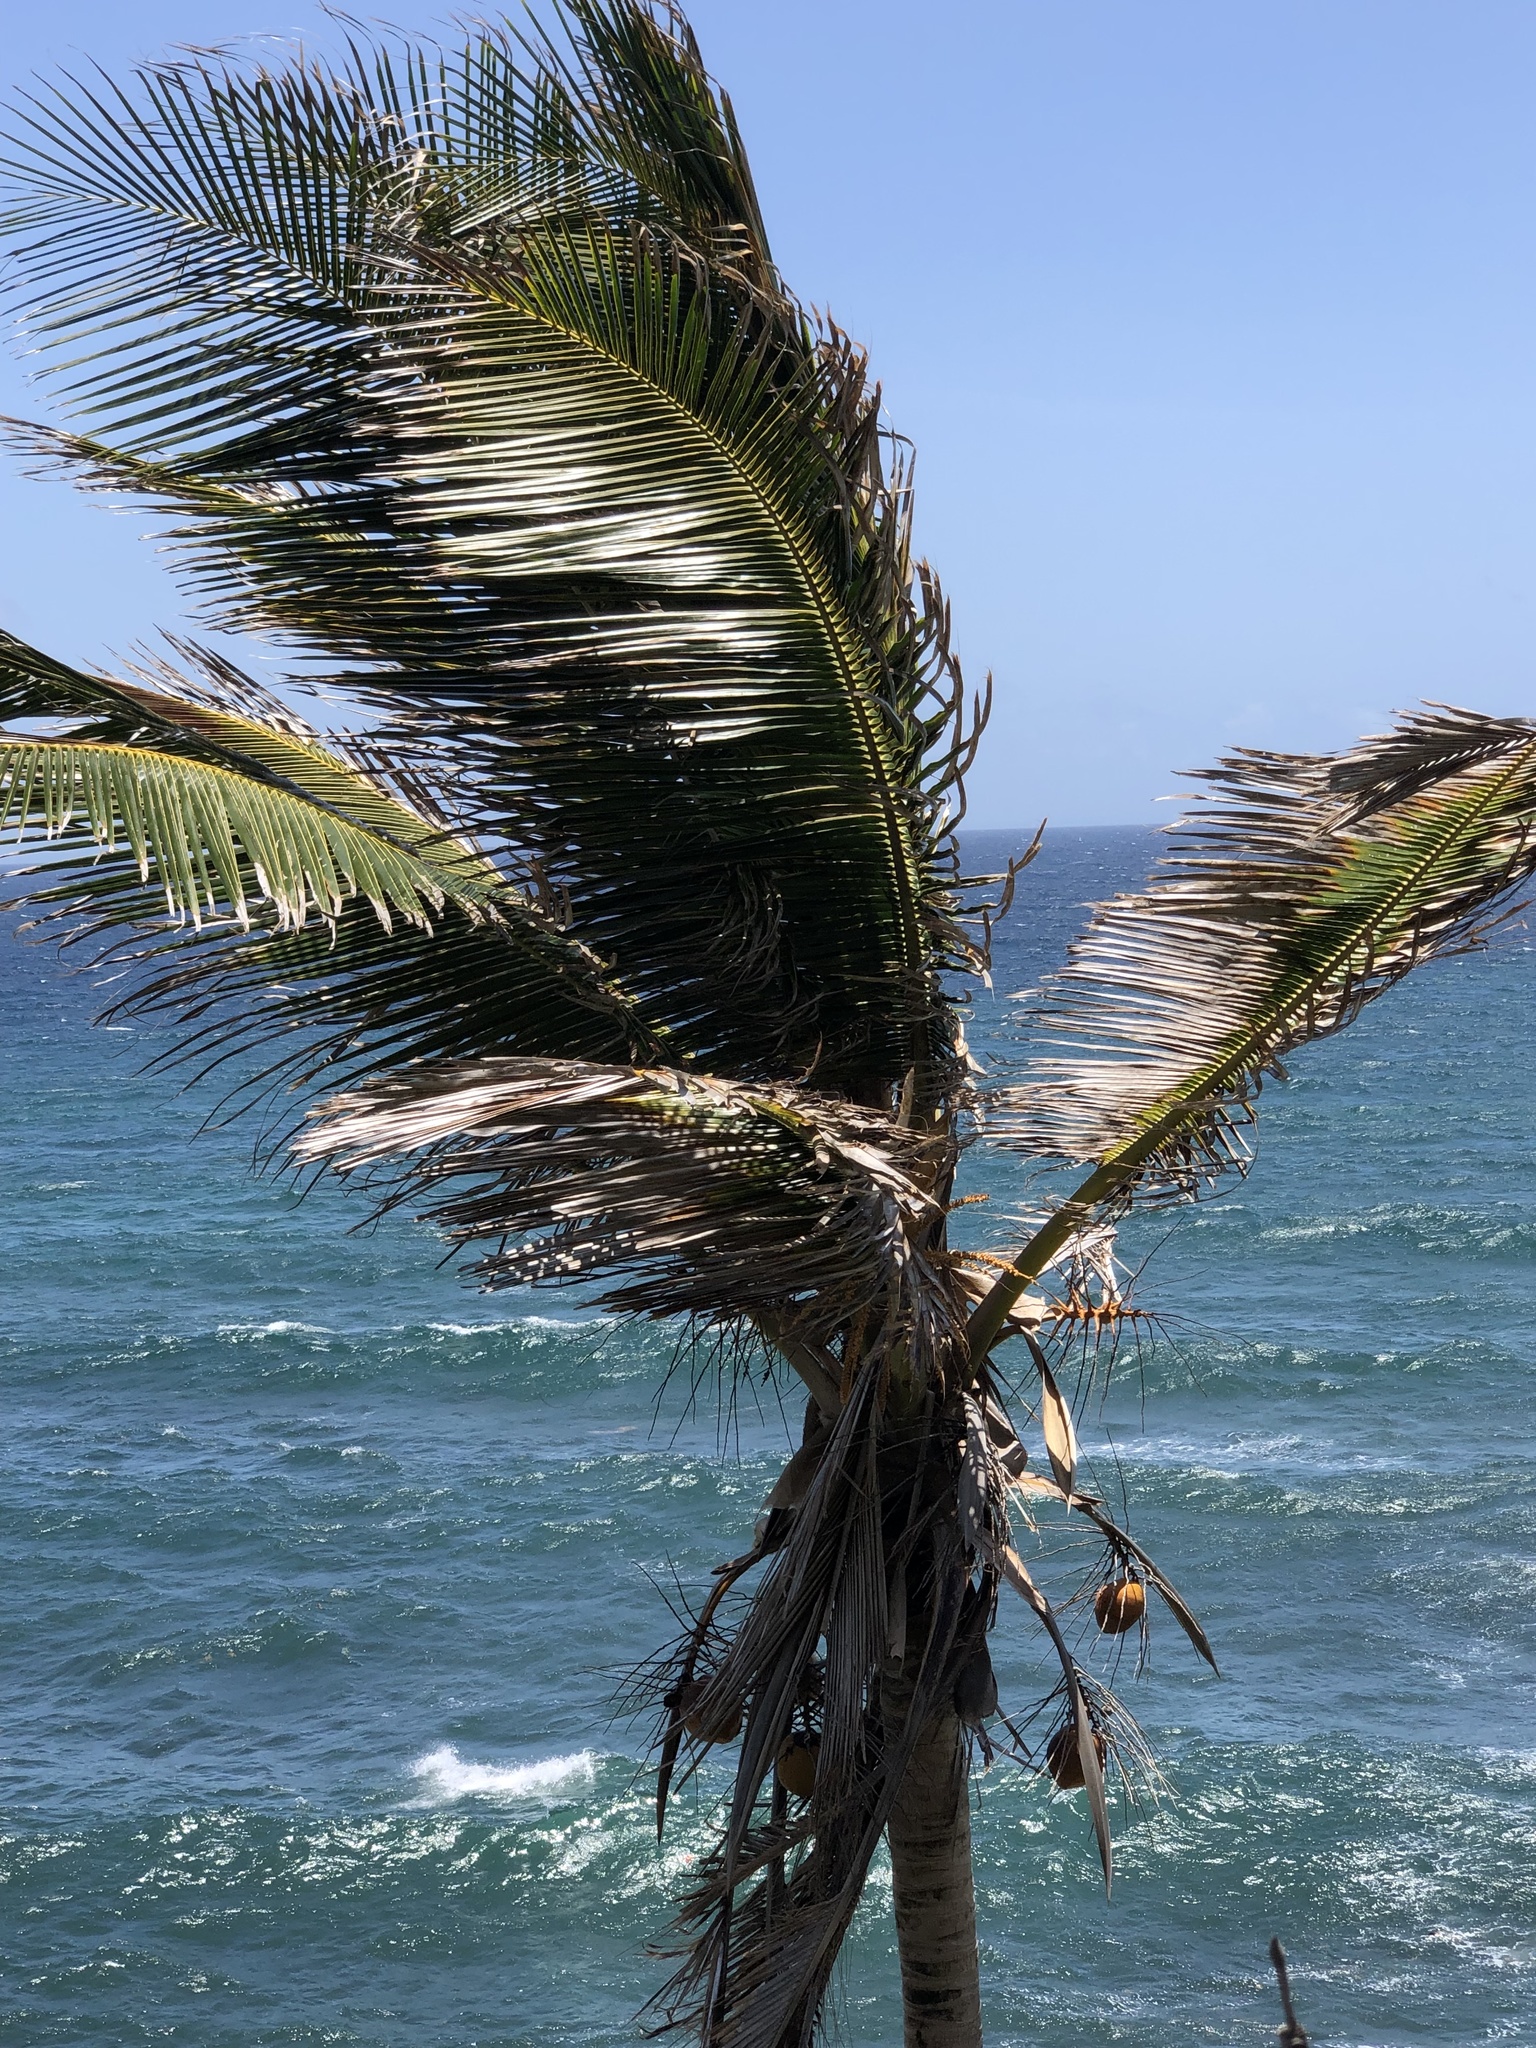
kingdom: Plantae
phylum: Tracheophyta
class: Liliopsida
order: Arecales
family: Arecaceae
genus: Cocos
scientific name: Cocos nucifera
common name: Coconut palm
